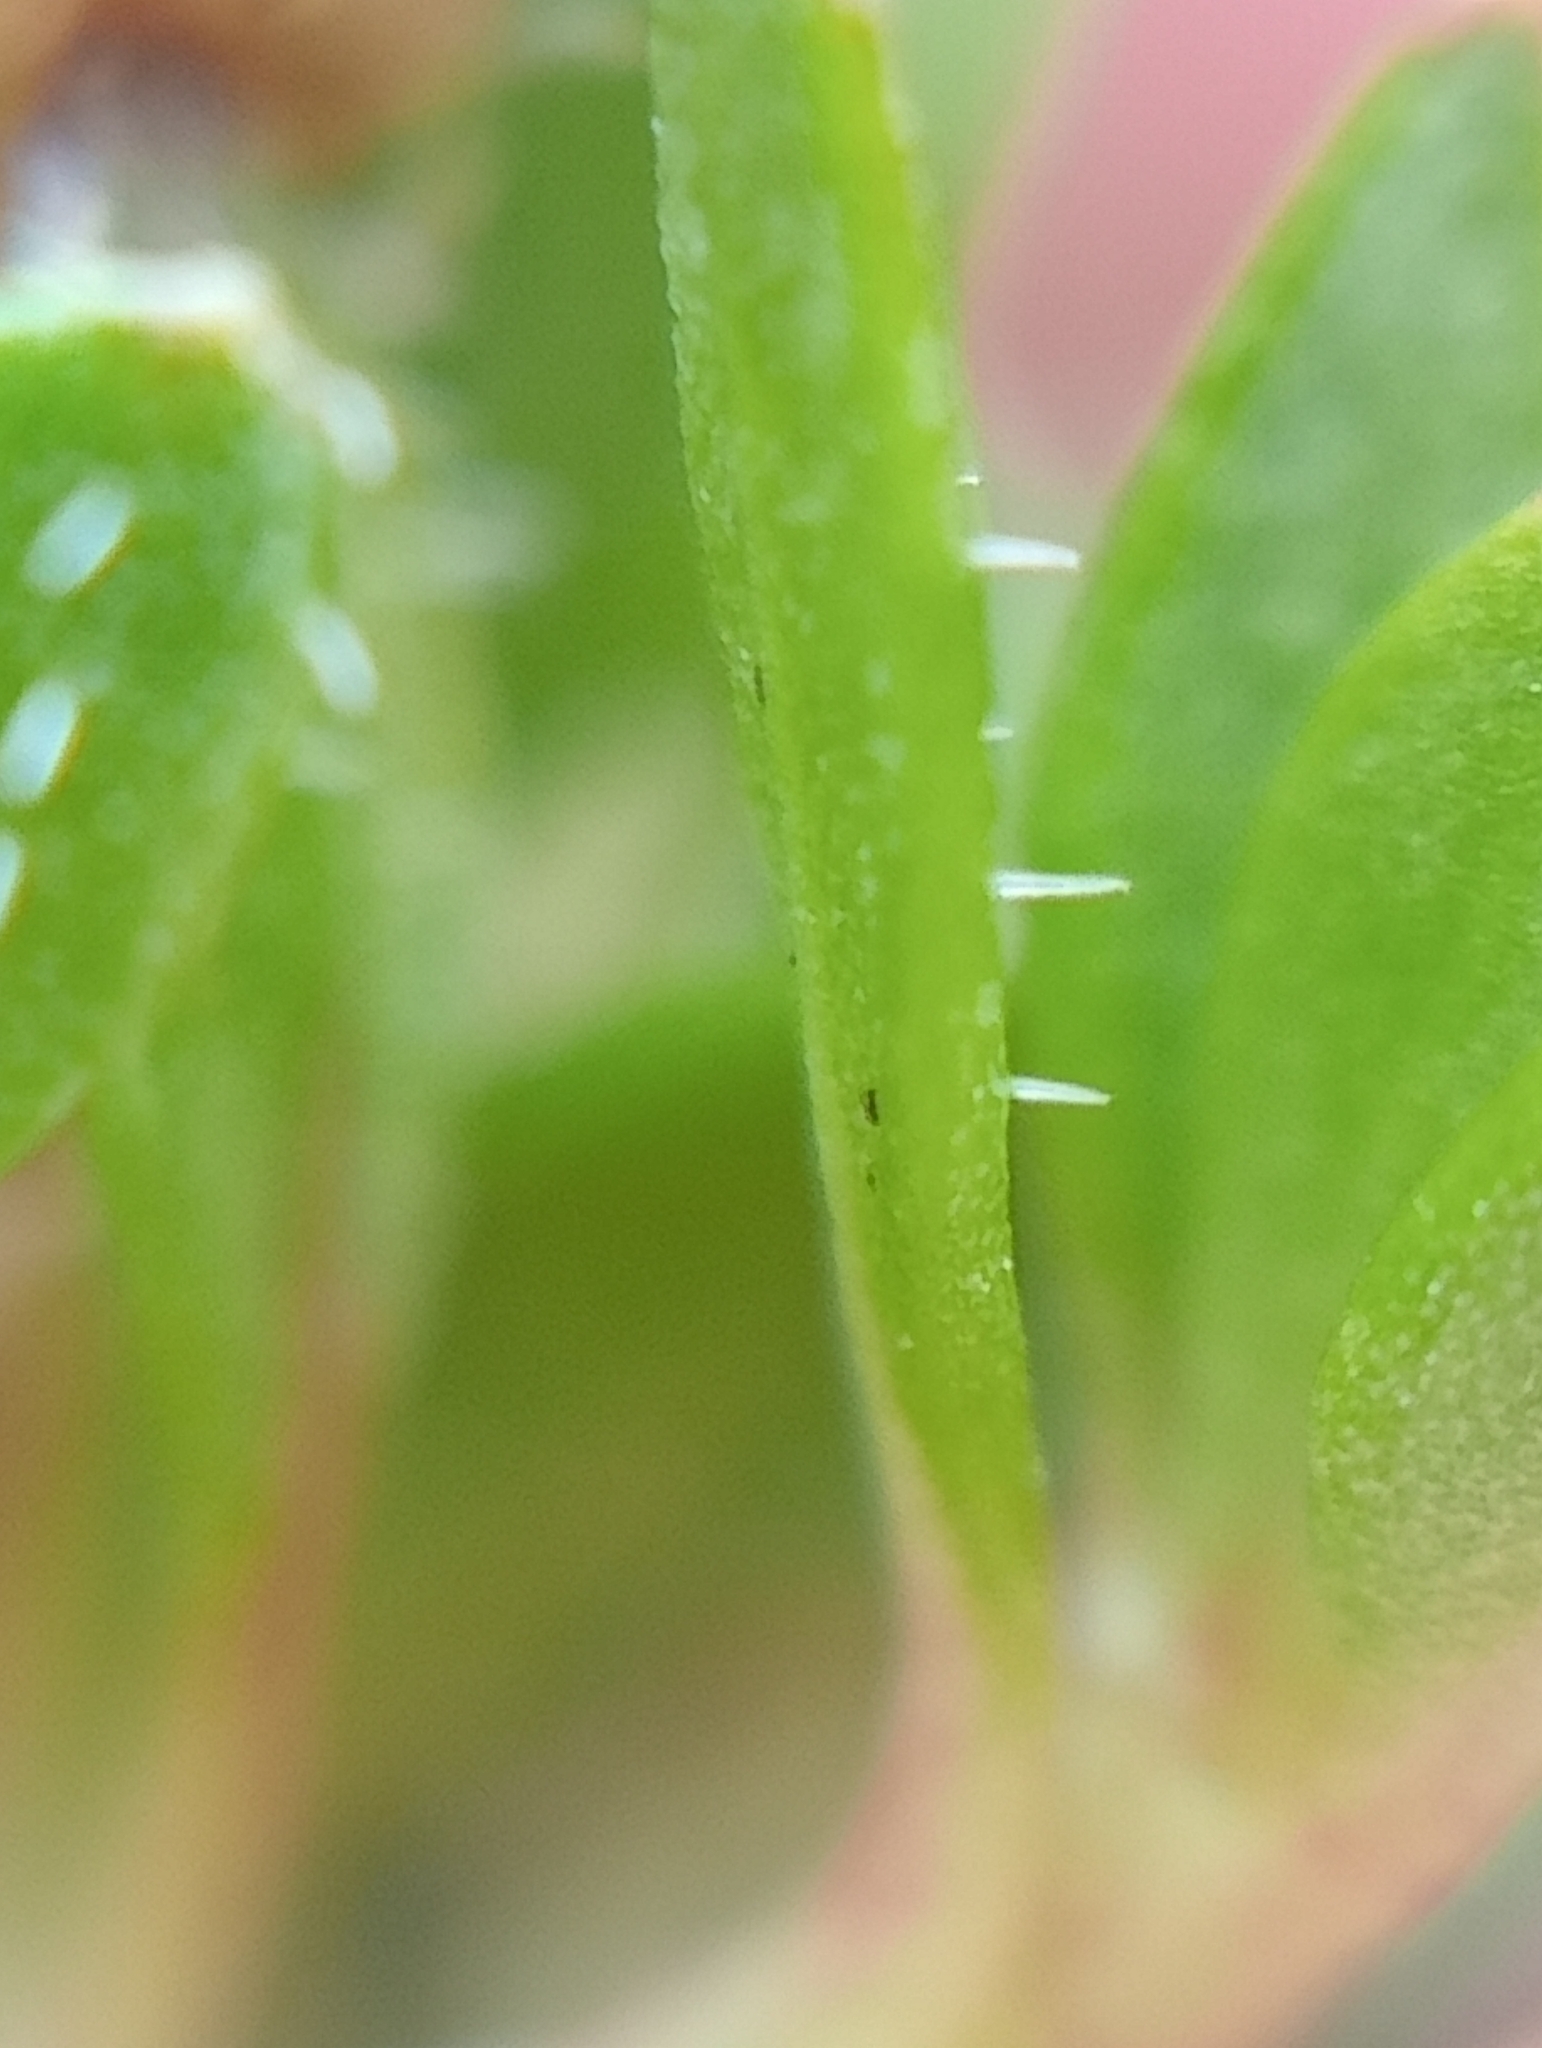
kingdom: Plantae
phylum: Tracheophyta
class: Magnoliopsida
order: Gentianales
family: Rubiaceae
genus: Coprosma
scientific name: Coprosma atropurpurea
